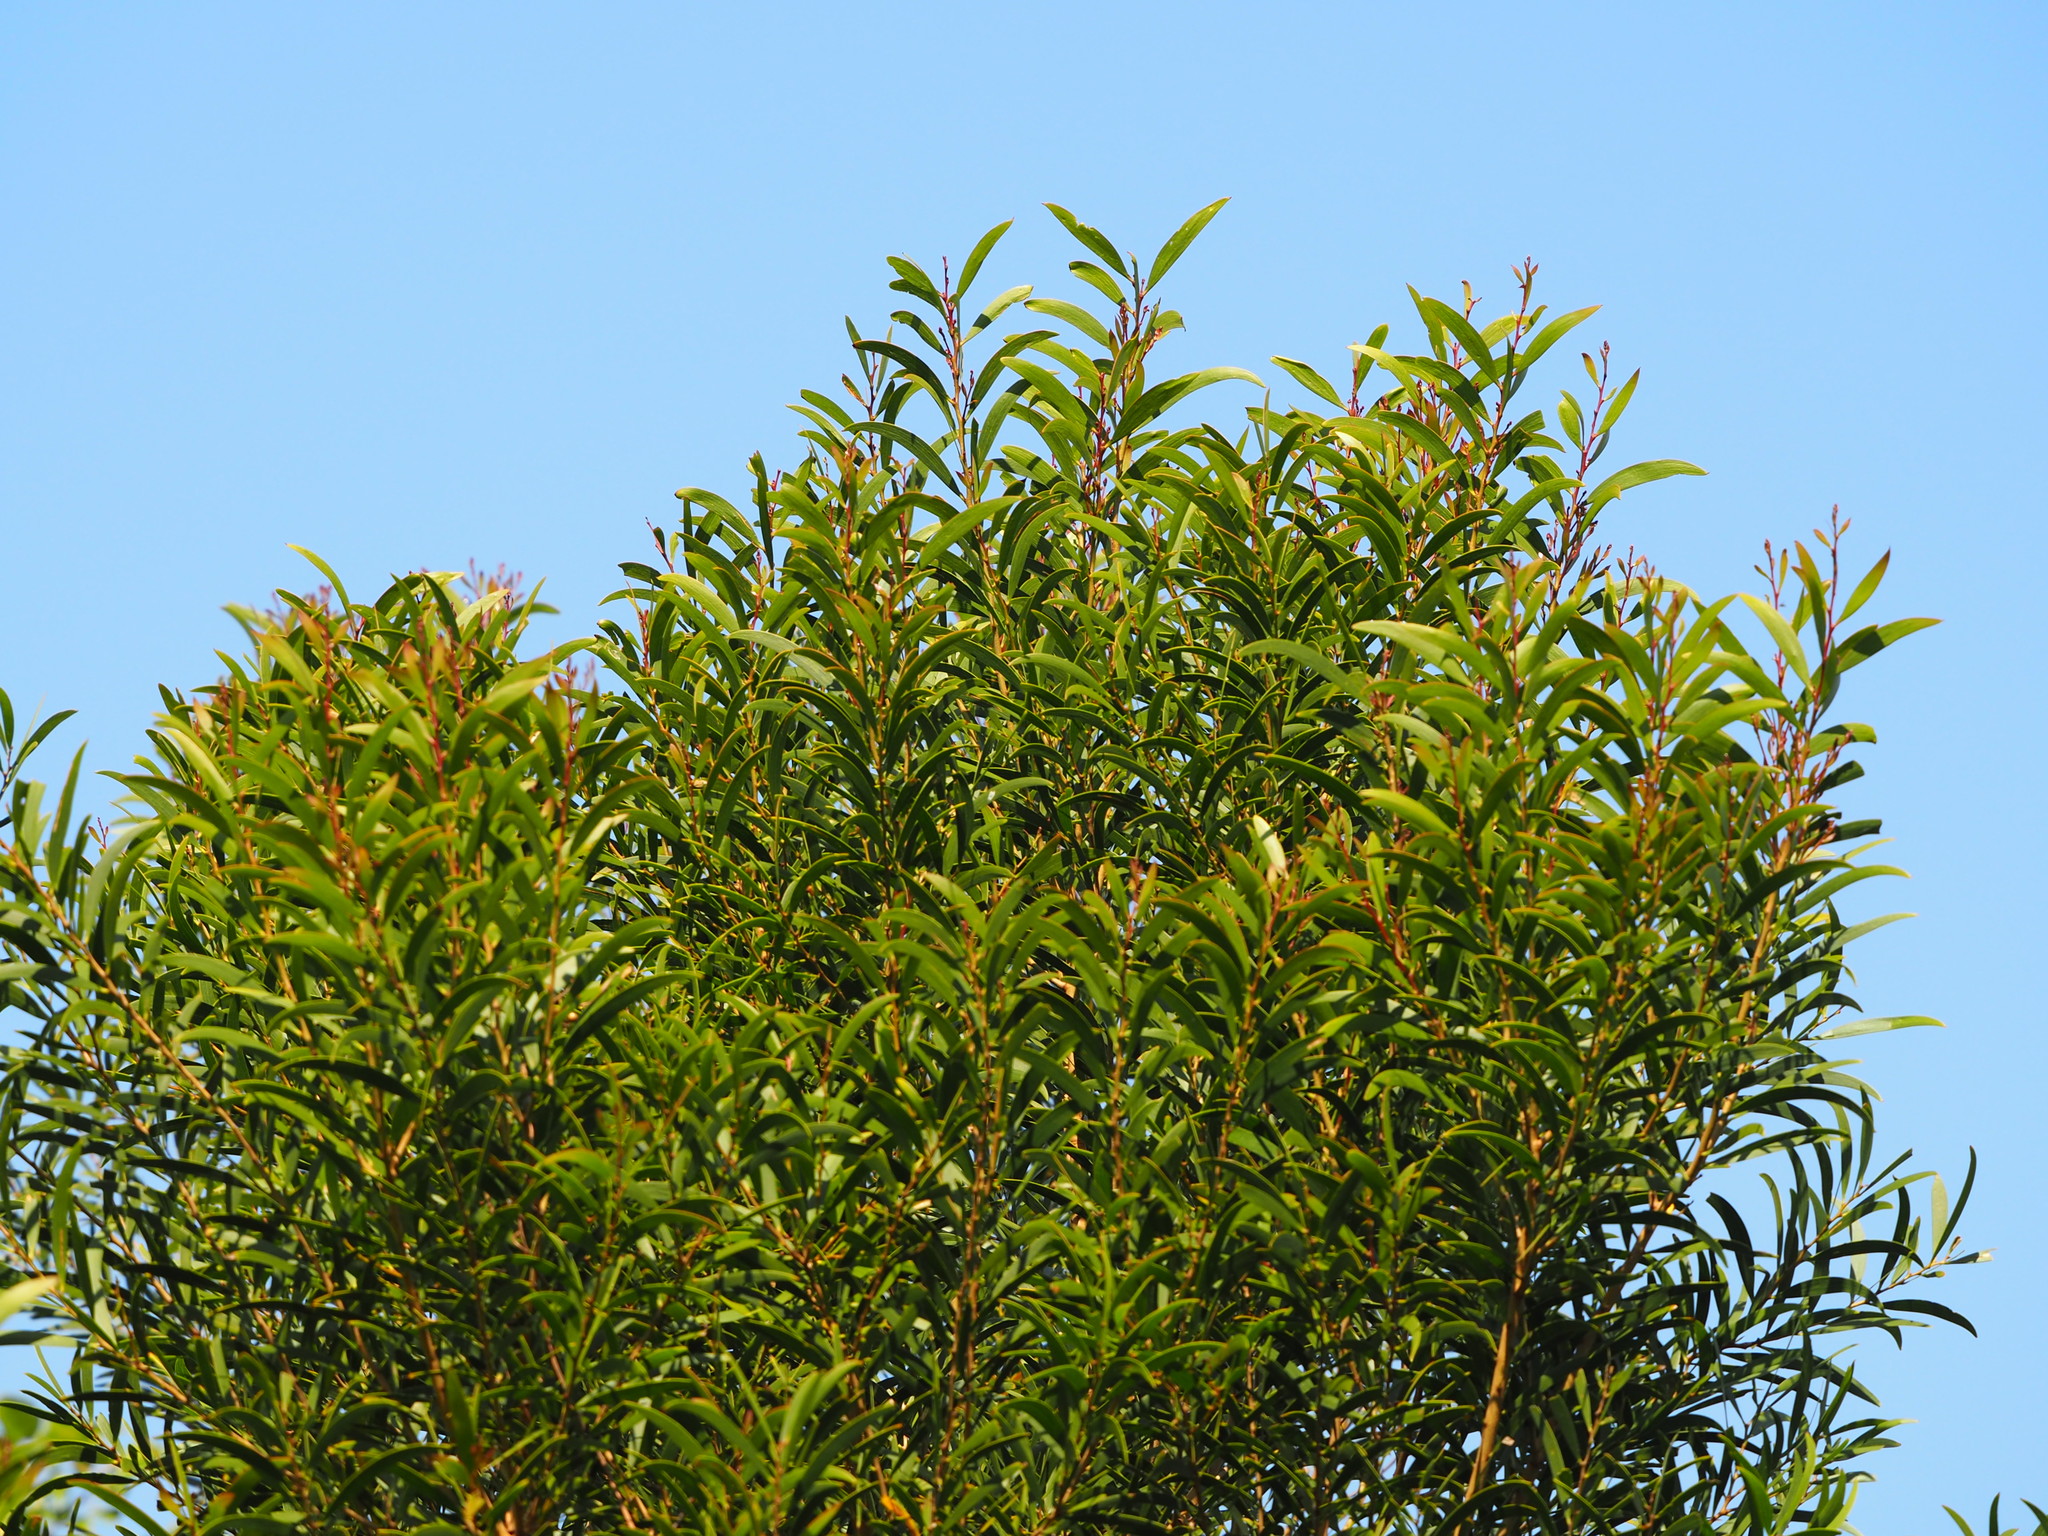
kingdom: Plantae
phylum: Tracheophyta
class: Magnoliopsida
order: Fabales
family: Fabaceae
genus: Acacia
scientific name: Acacia confusa
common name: Formosan koa
